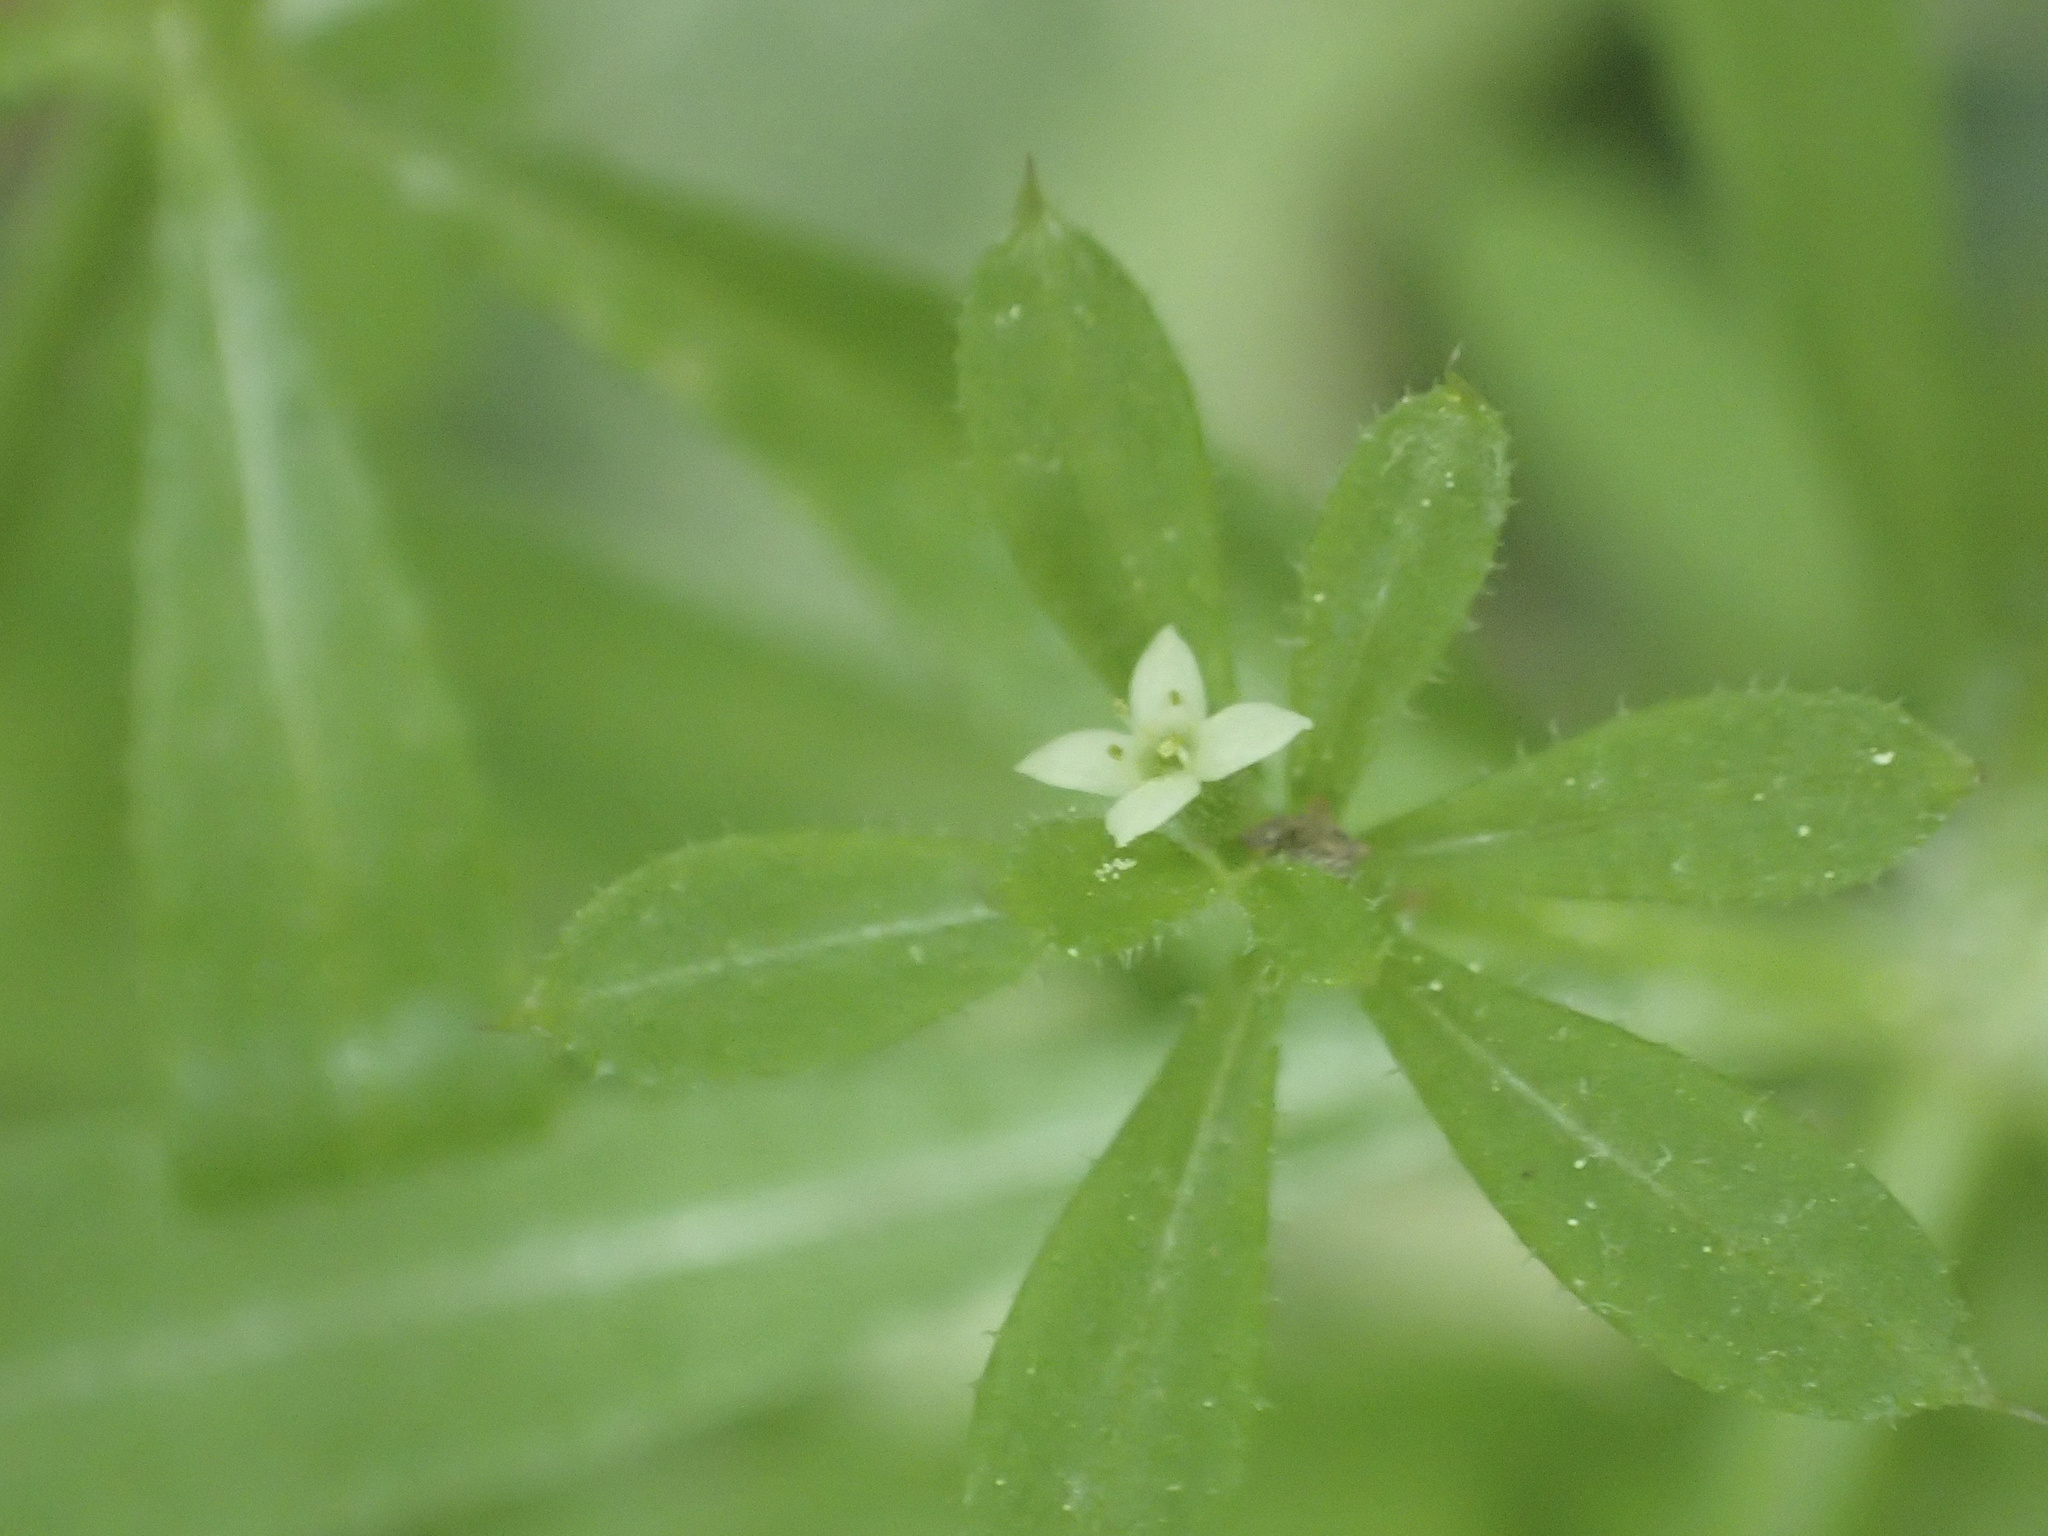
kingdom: Plantae
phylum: Tracheophyta
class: Magnoliopsida
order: Gentianales
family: Rubiaceae
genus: Galium
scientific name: Galium aparine
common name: Cleavers
